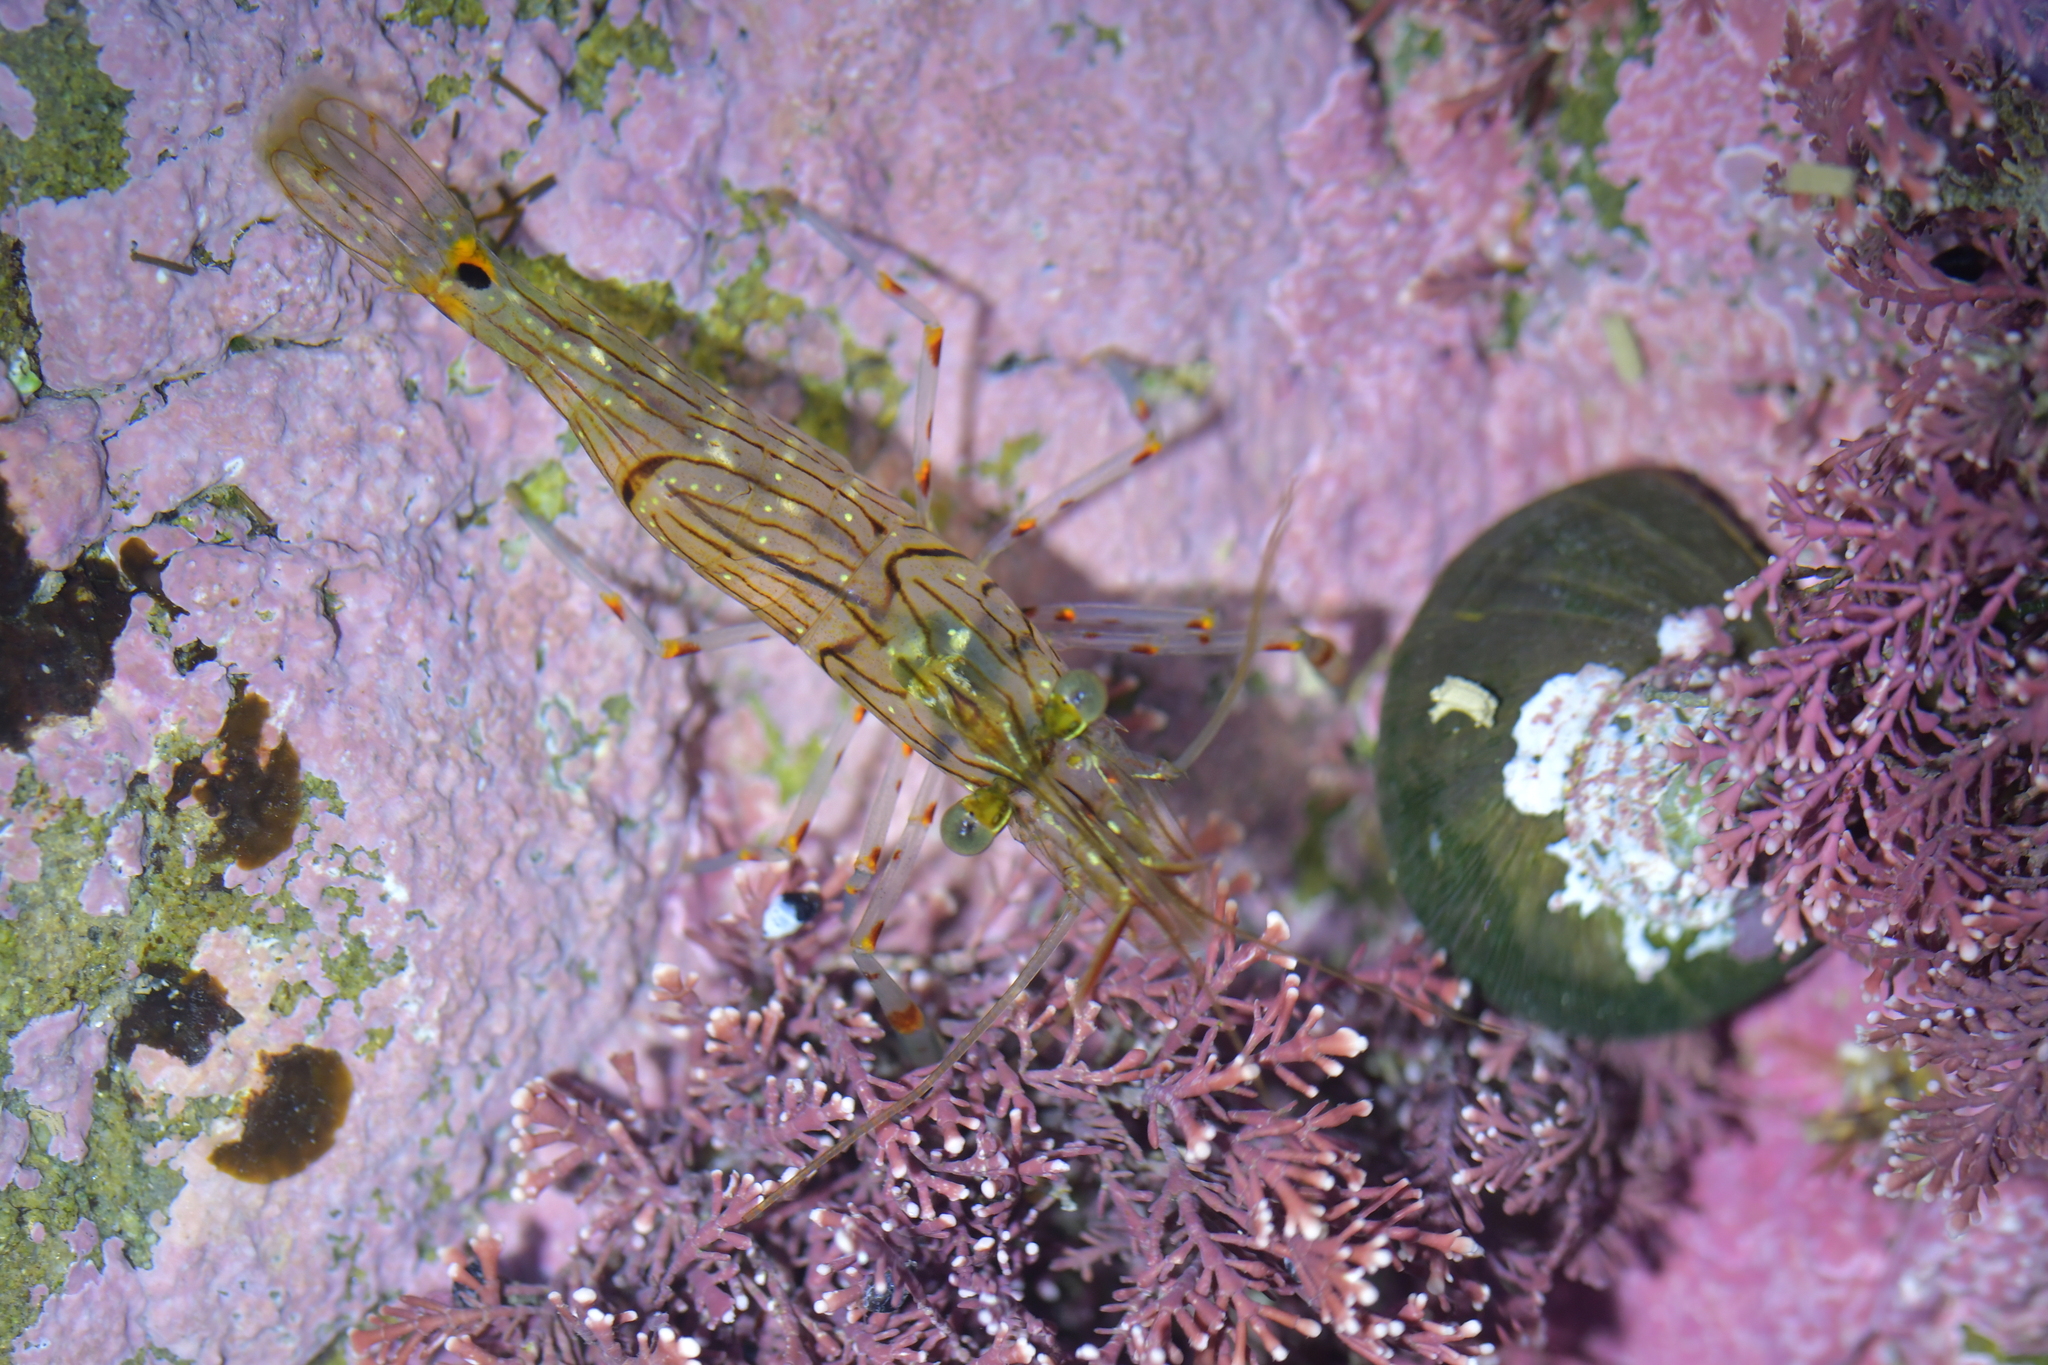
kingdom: Animalia
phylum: Arthropoda
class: Malacostraca
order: Decapoda
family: Palaemonidae
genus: Palaemon
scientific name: Palaemon affinis
